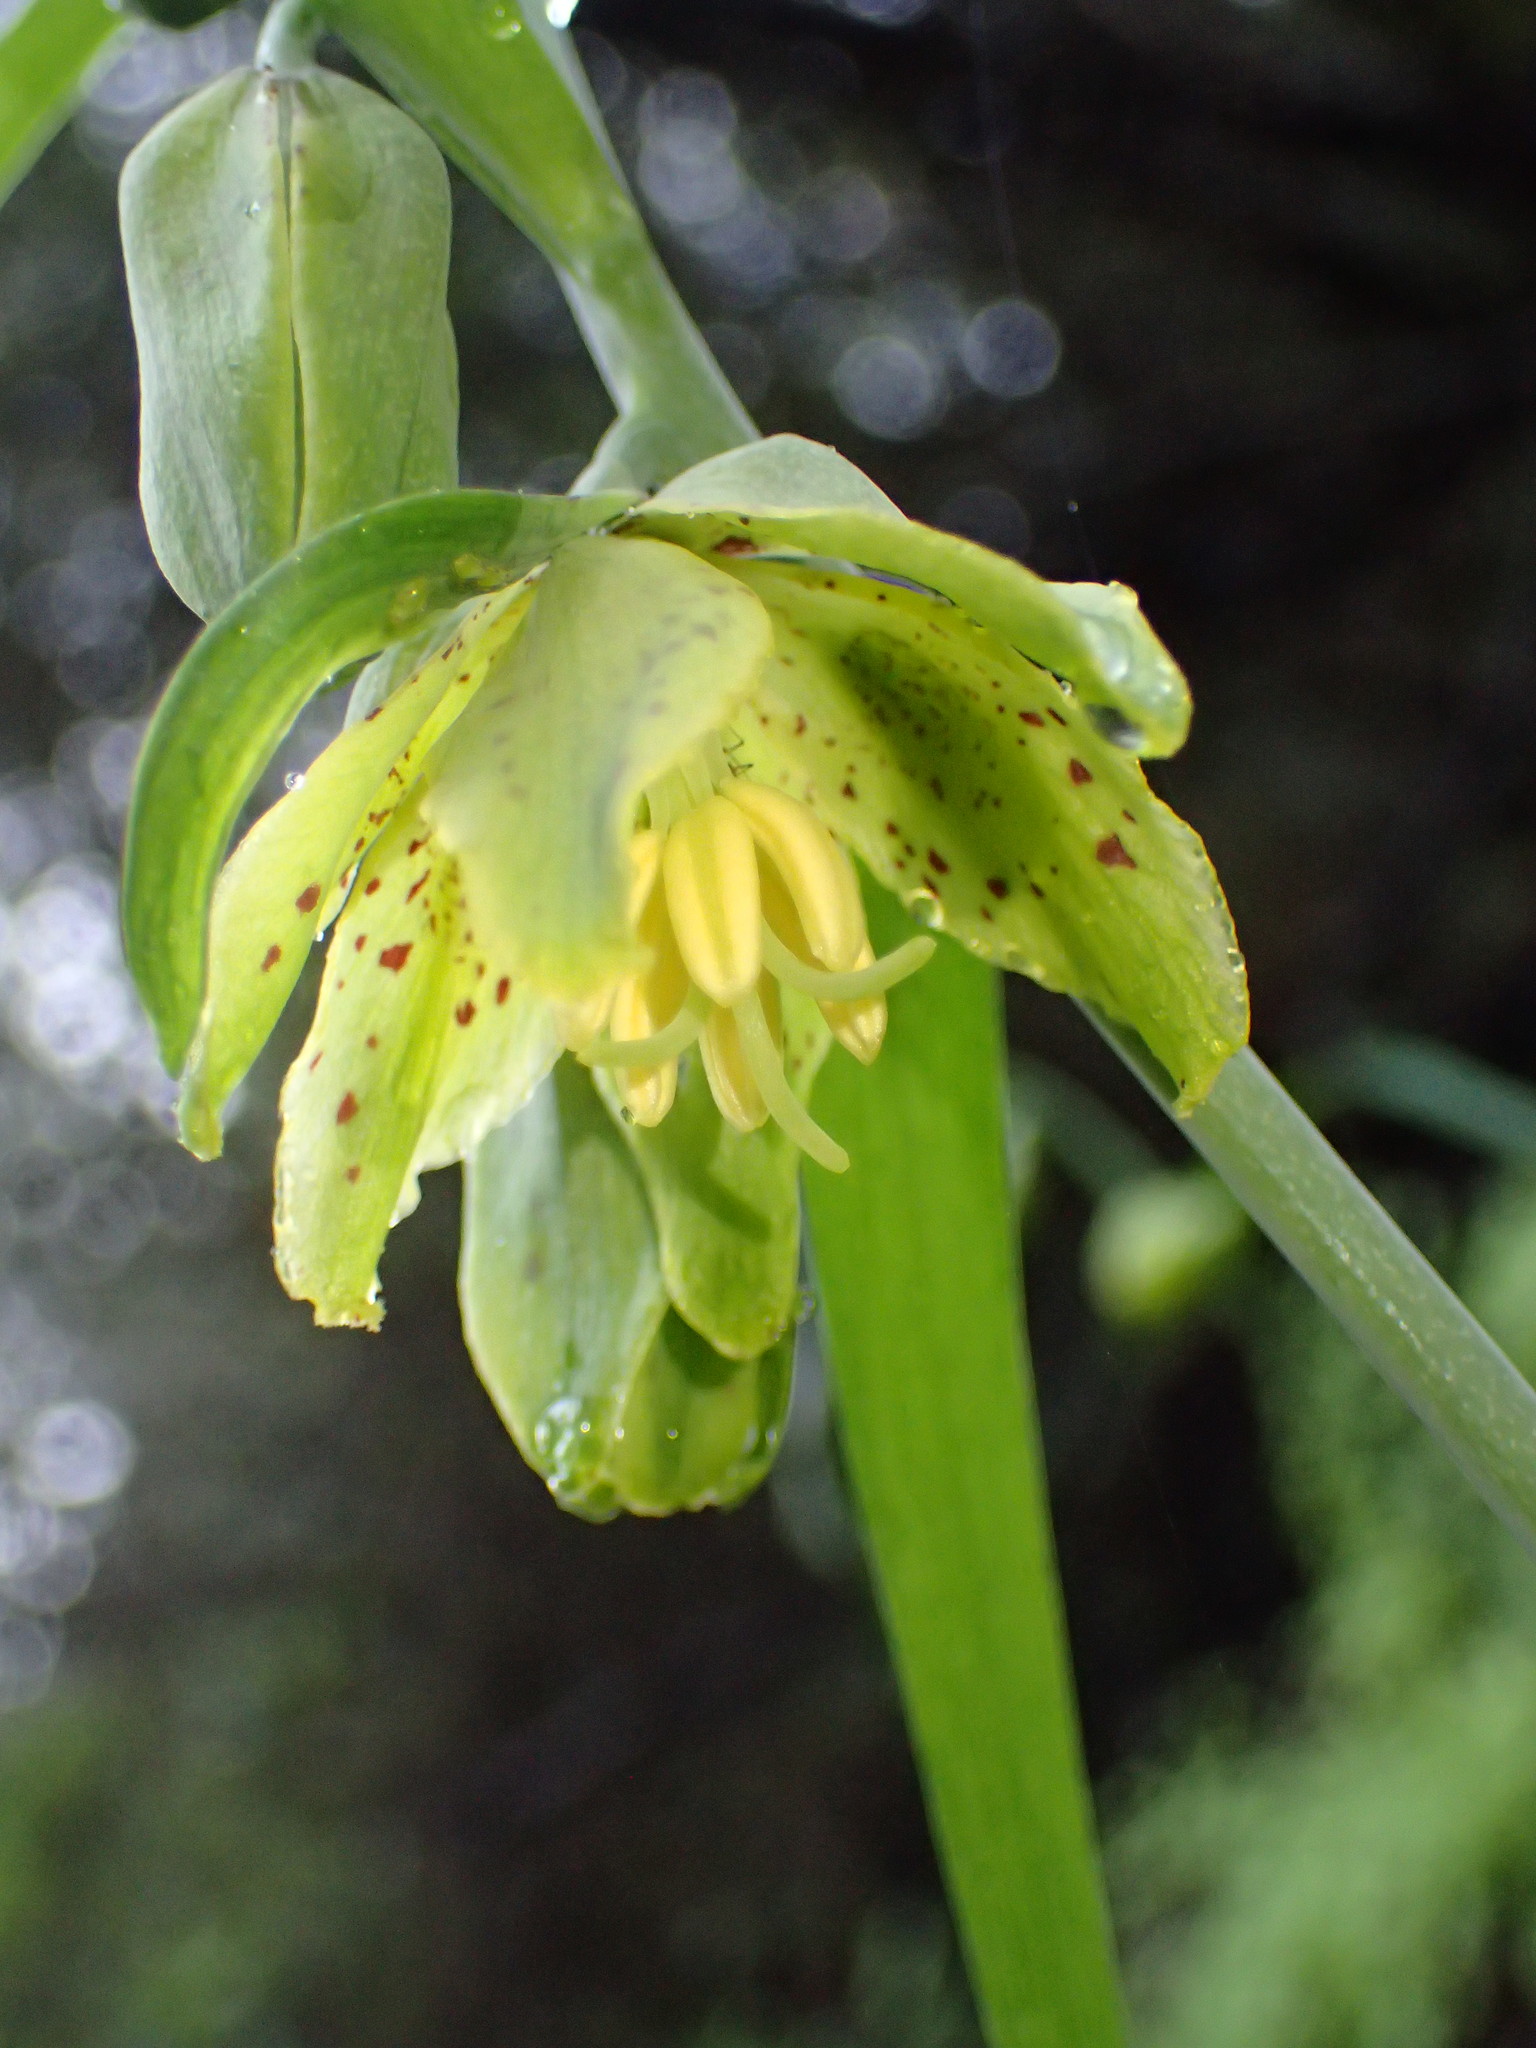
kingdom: Plantae
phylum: Tracheophyta
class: Liliopsida
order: Liliales
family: Liliaceae
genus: Fritillaria
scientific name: Fritillaria ojaiensis
